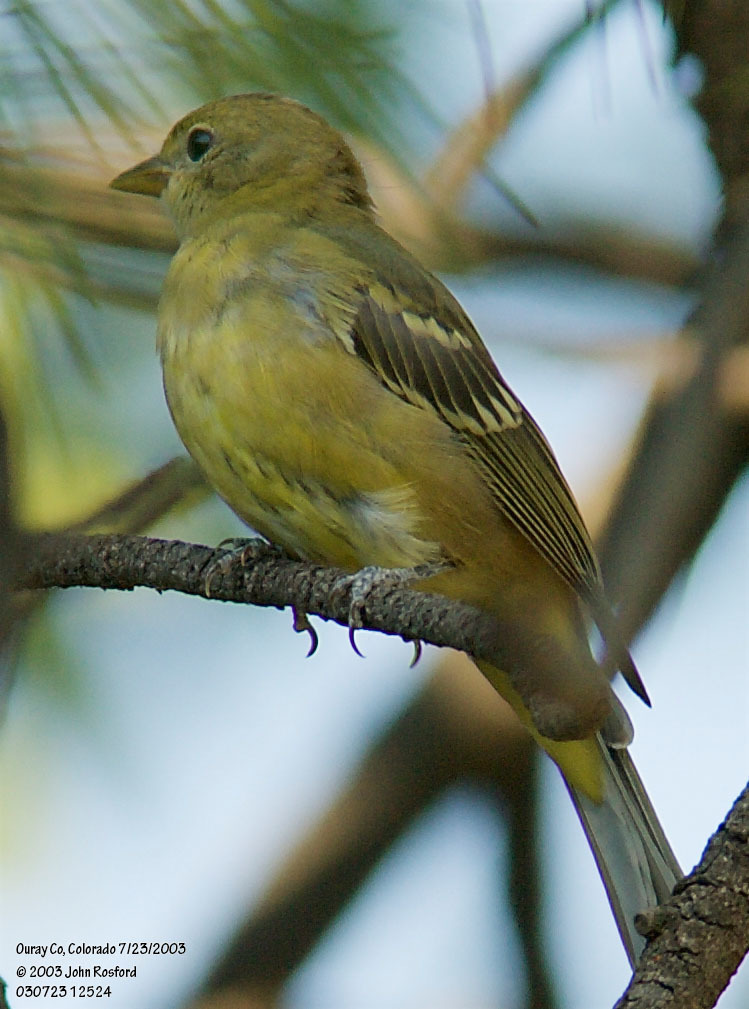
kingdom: Animalia
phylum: Chordata
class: Aves
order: Passeriformes
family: Cardinalidae
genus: Piranga
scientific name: Piranga ludoviciana
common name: Western tanager
